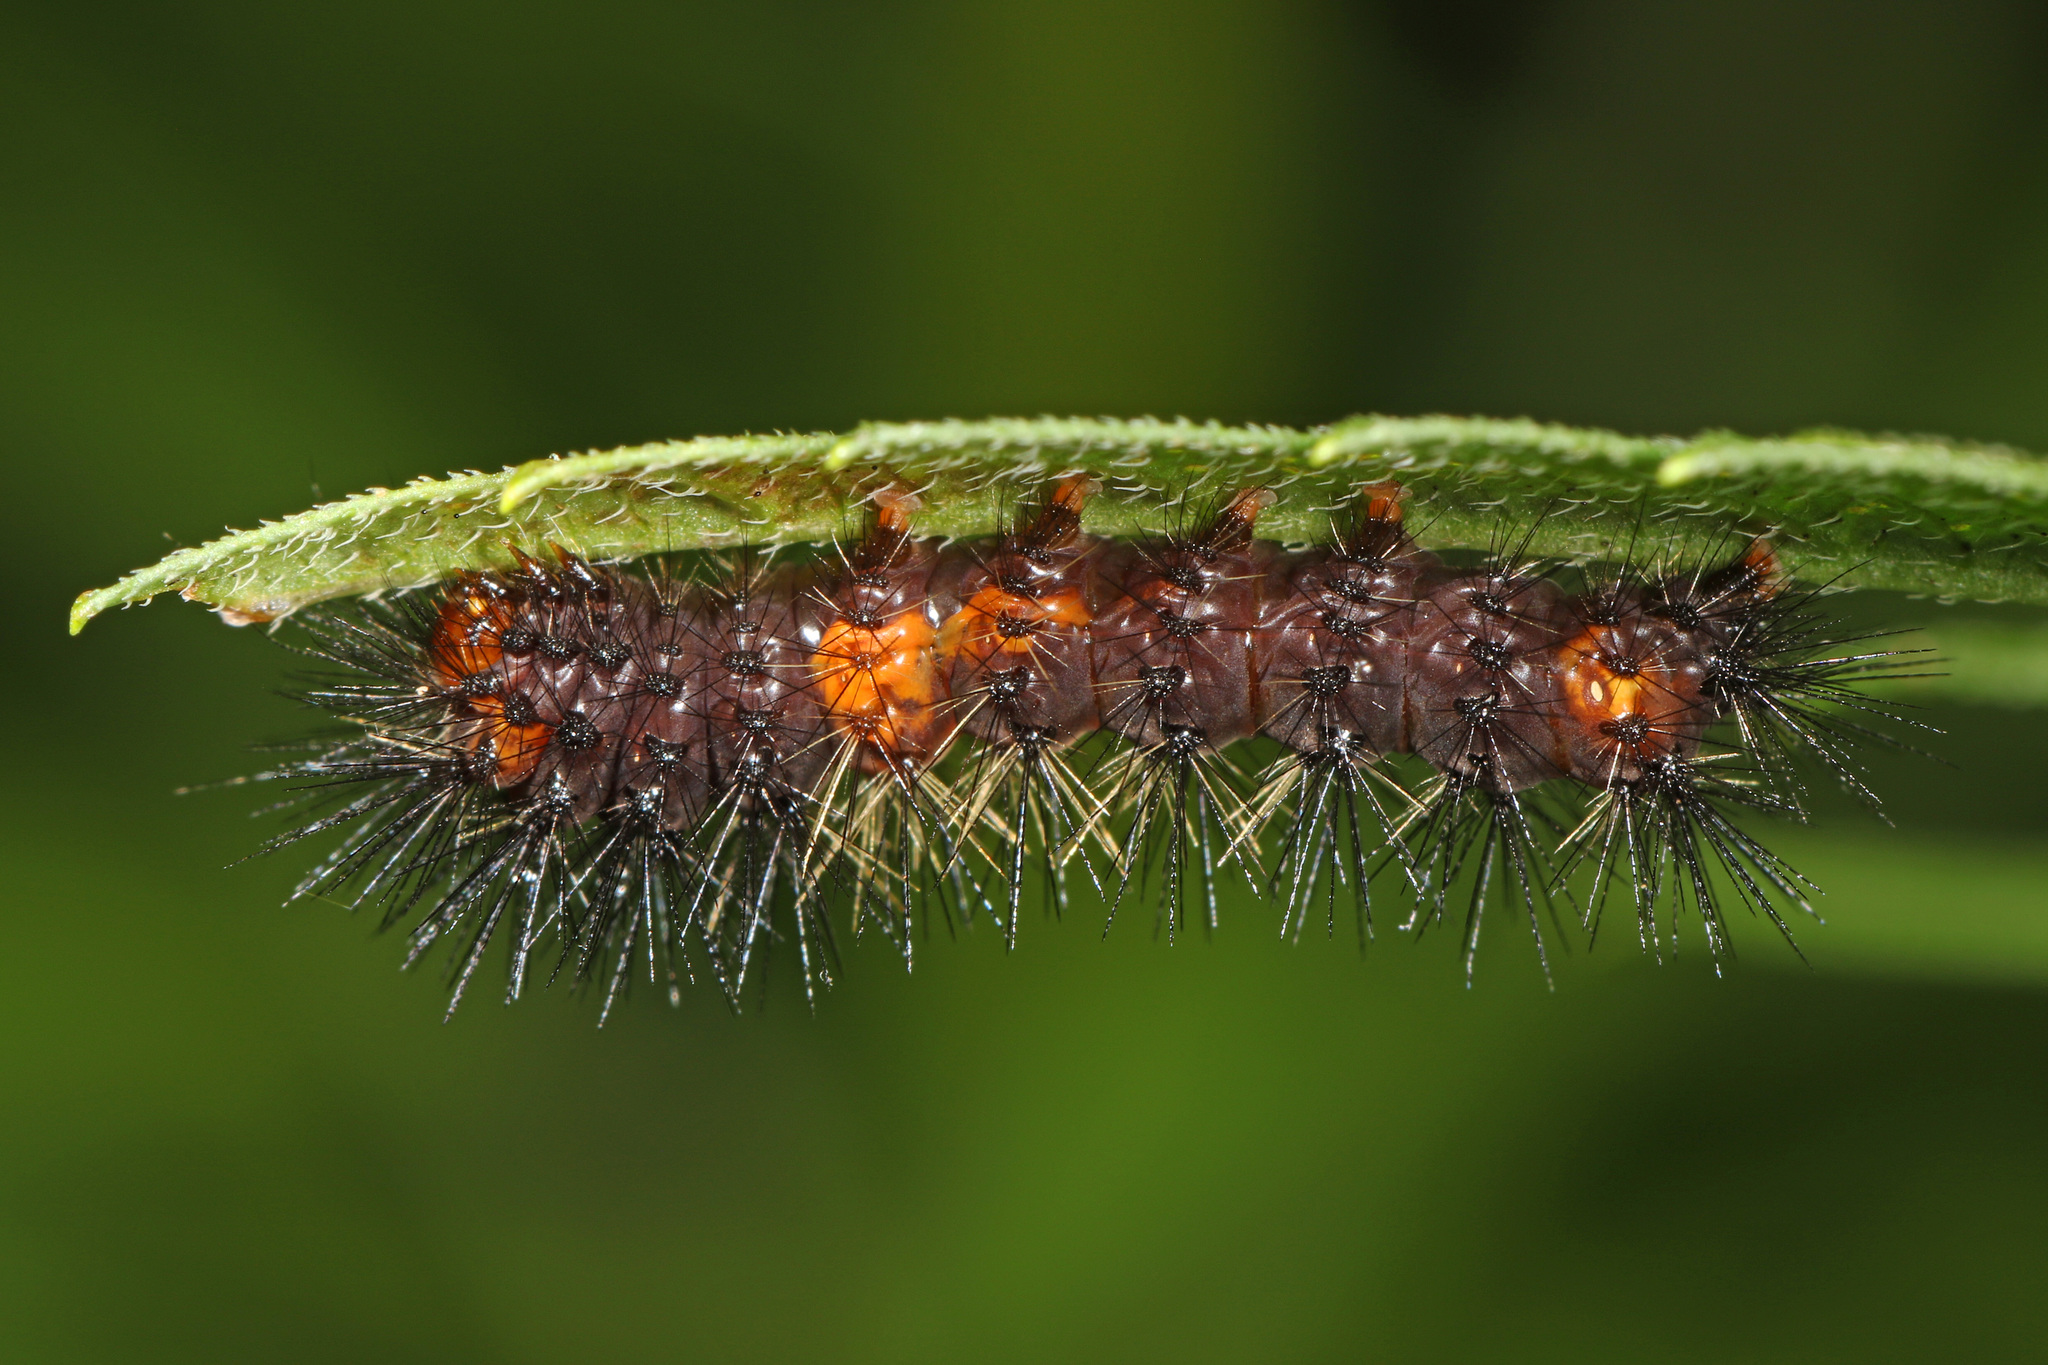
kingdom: Animalia
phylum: Arthropoda
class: Insecta
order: Lepidoptera
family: Erebidae
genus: Hypercompe
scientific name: Hypercompe scribonia
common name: Giant leopard moth
